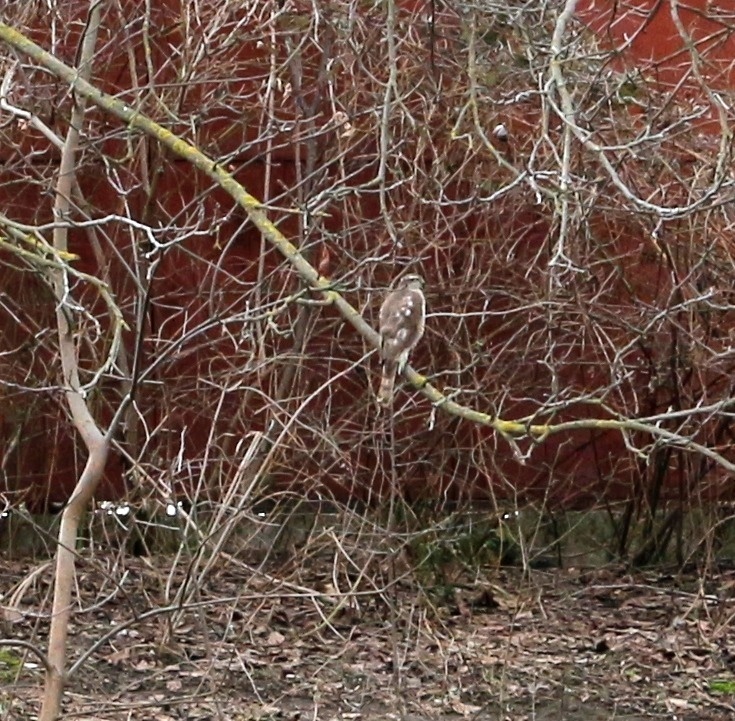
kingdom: Animalia
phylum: Chordata
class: Aves
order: Accipitriformes
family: Accipitridae
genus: Accipiter
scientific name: Accipiter nisus
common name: Eurasian sparrowhawk
